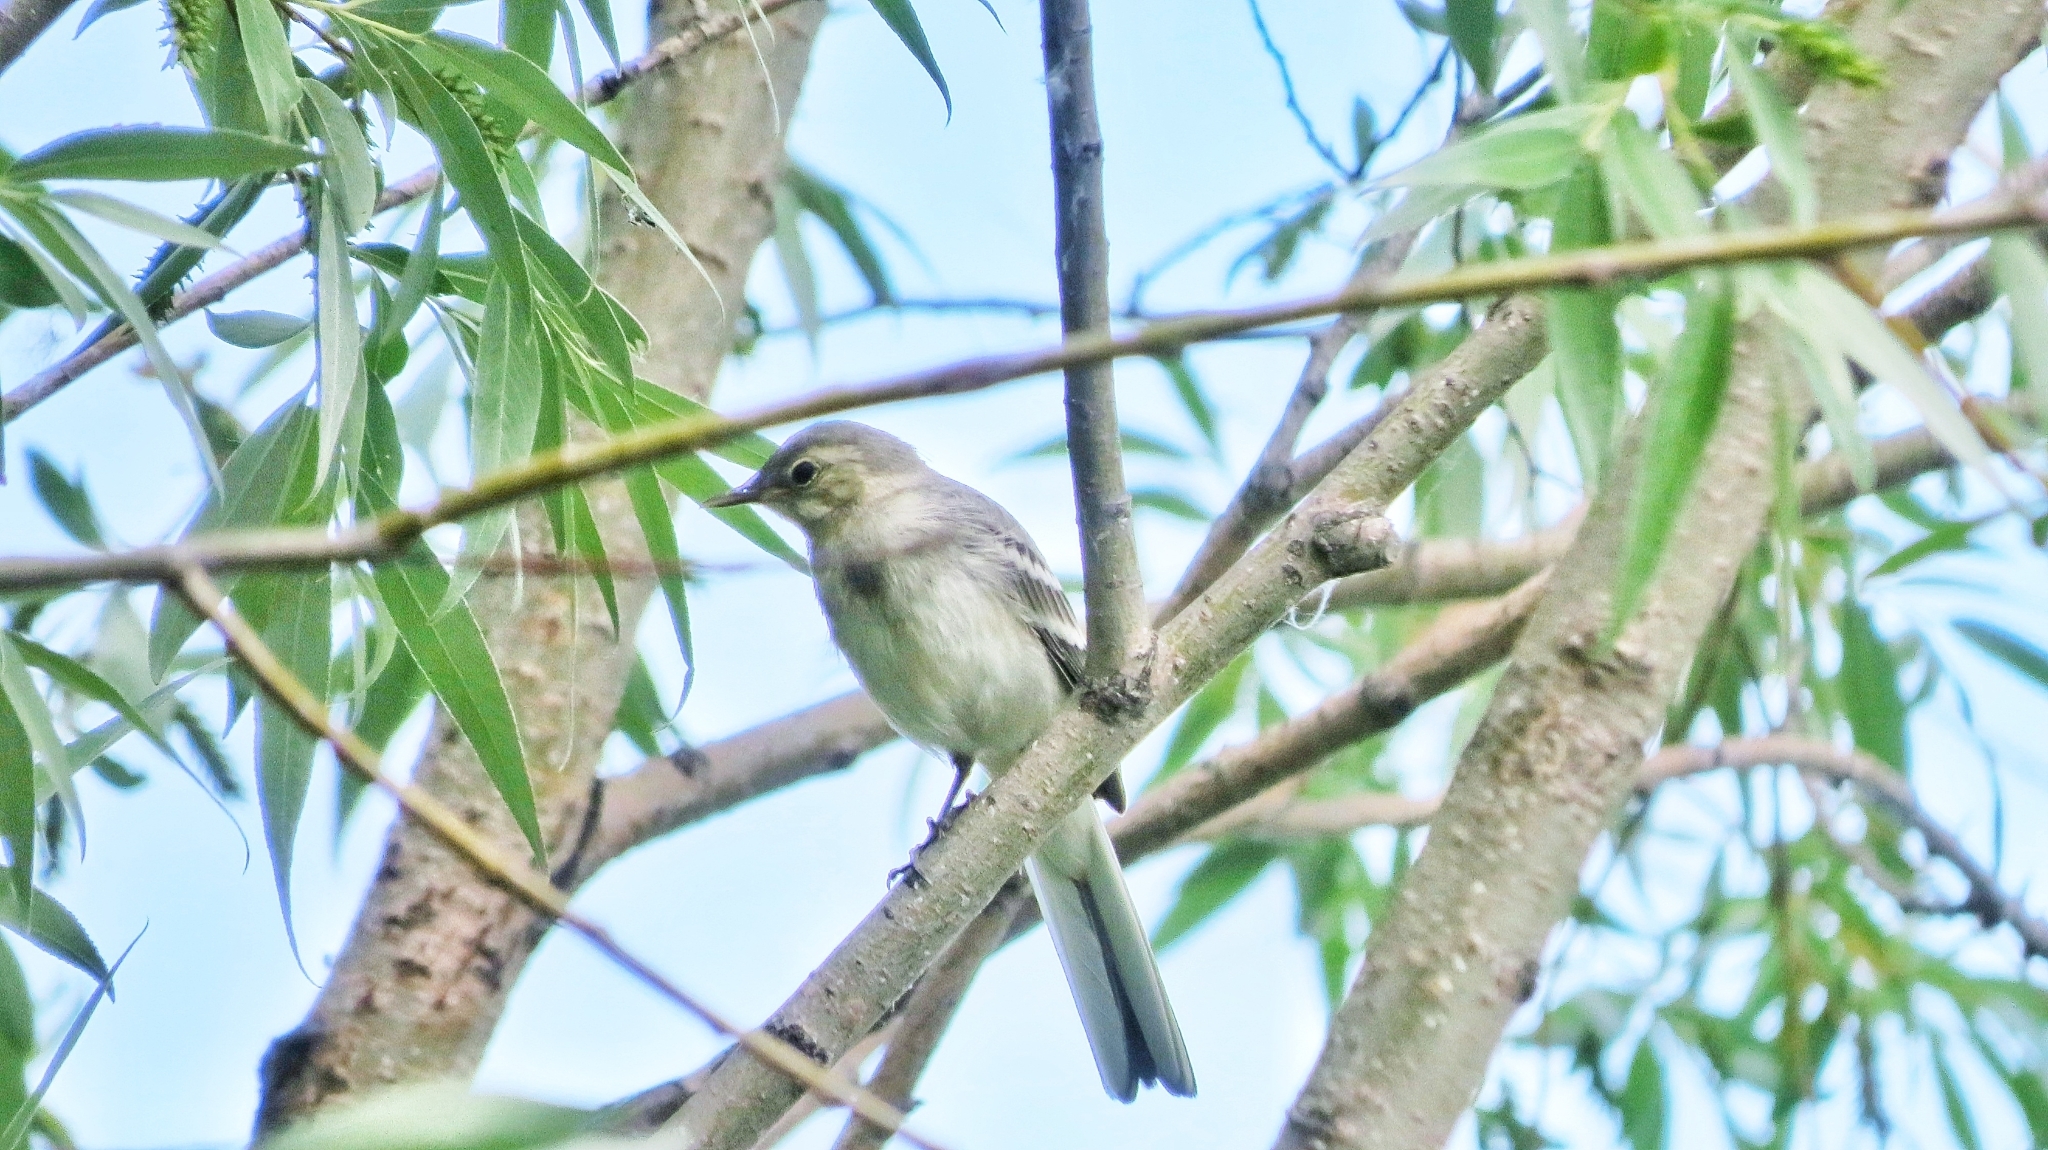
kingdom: Animalia
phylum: Chordata
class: Aves
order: Passeriformes
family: Motacillidae
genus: Motacilla
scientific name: Motacilla alba
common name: White wagtail
